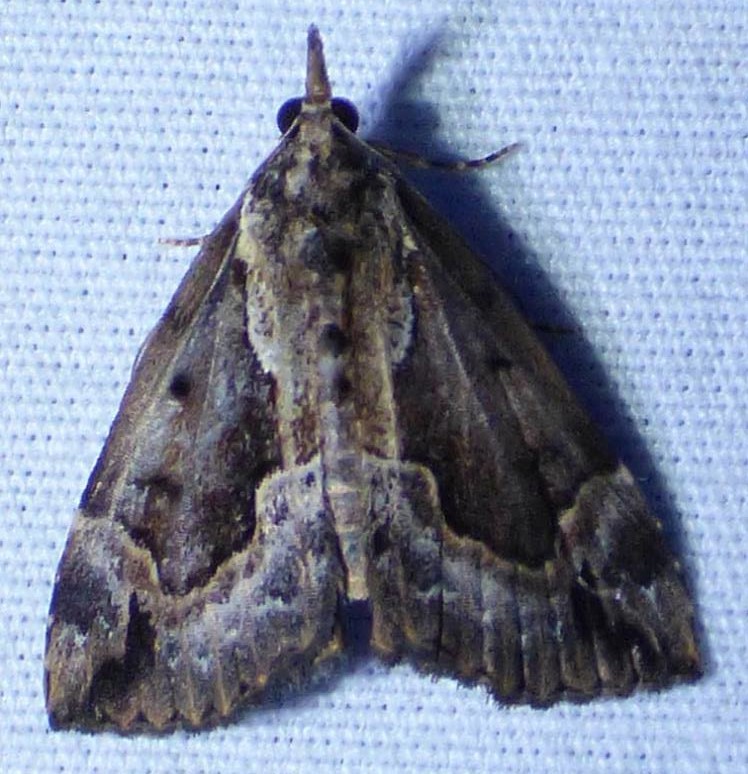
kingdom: Animalia
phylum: Arthropoda
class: Insecta
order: Lepidoptera
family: Erebidae
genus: Hypena
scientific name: Hypena baltimoralis
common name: Baltimore snout
